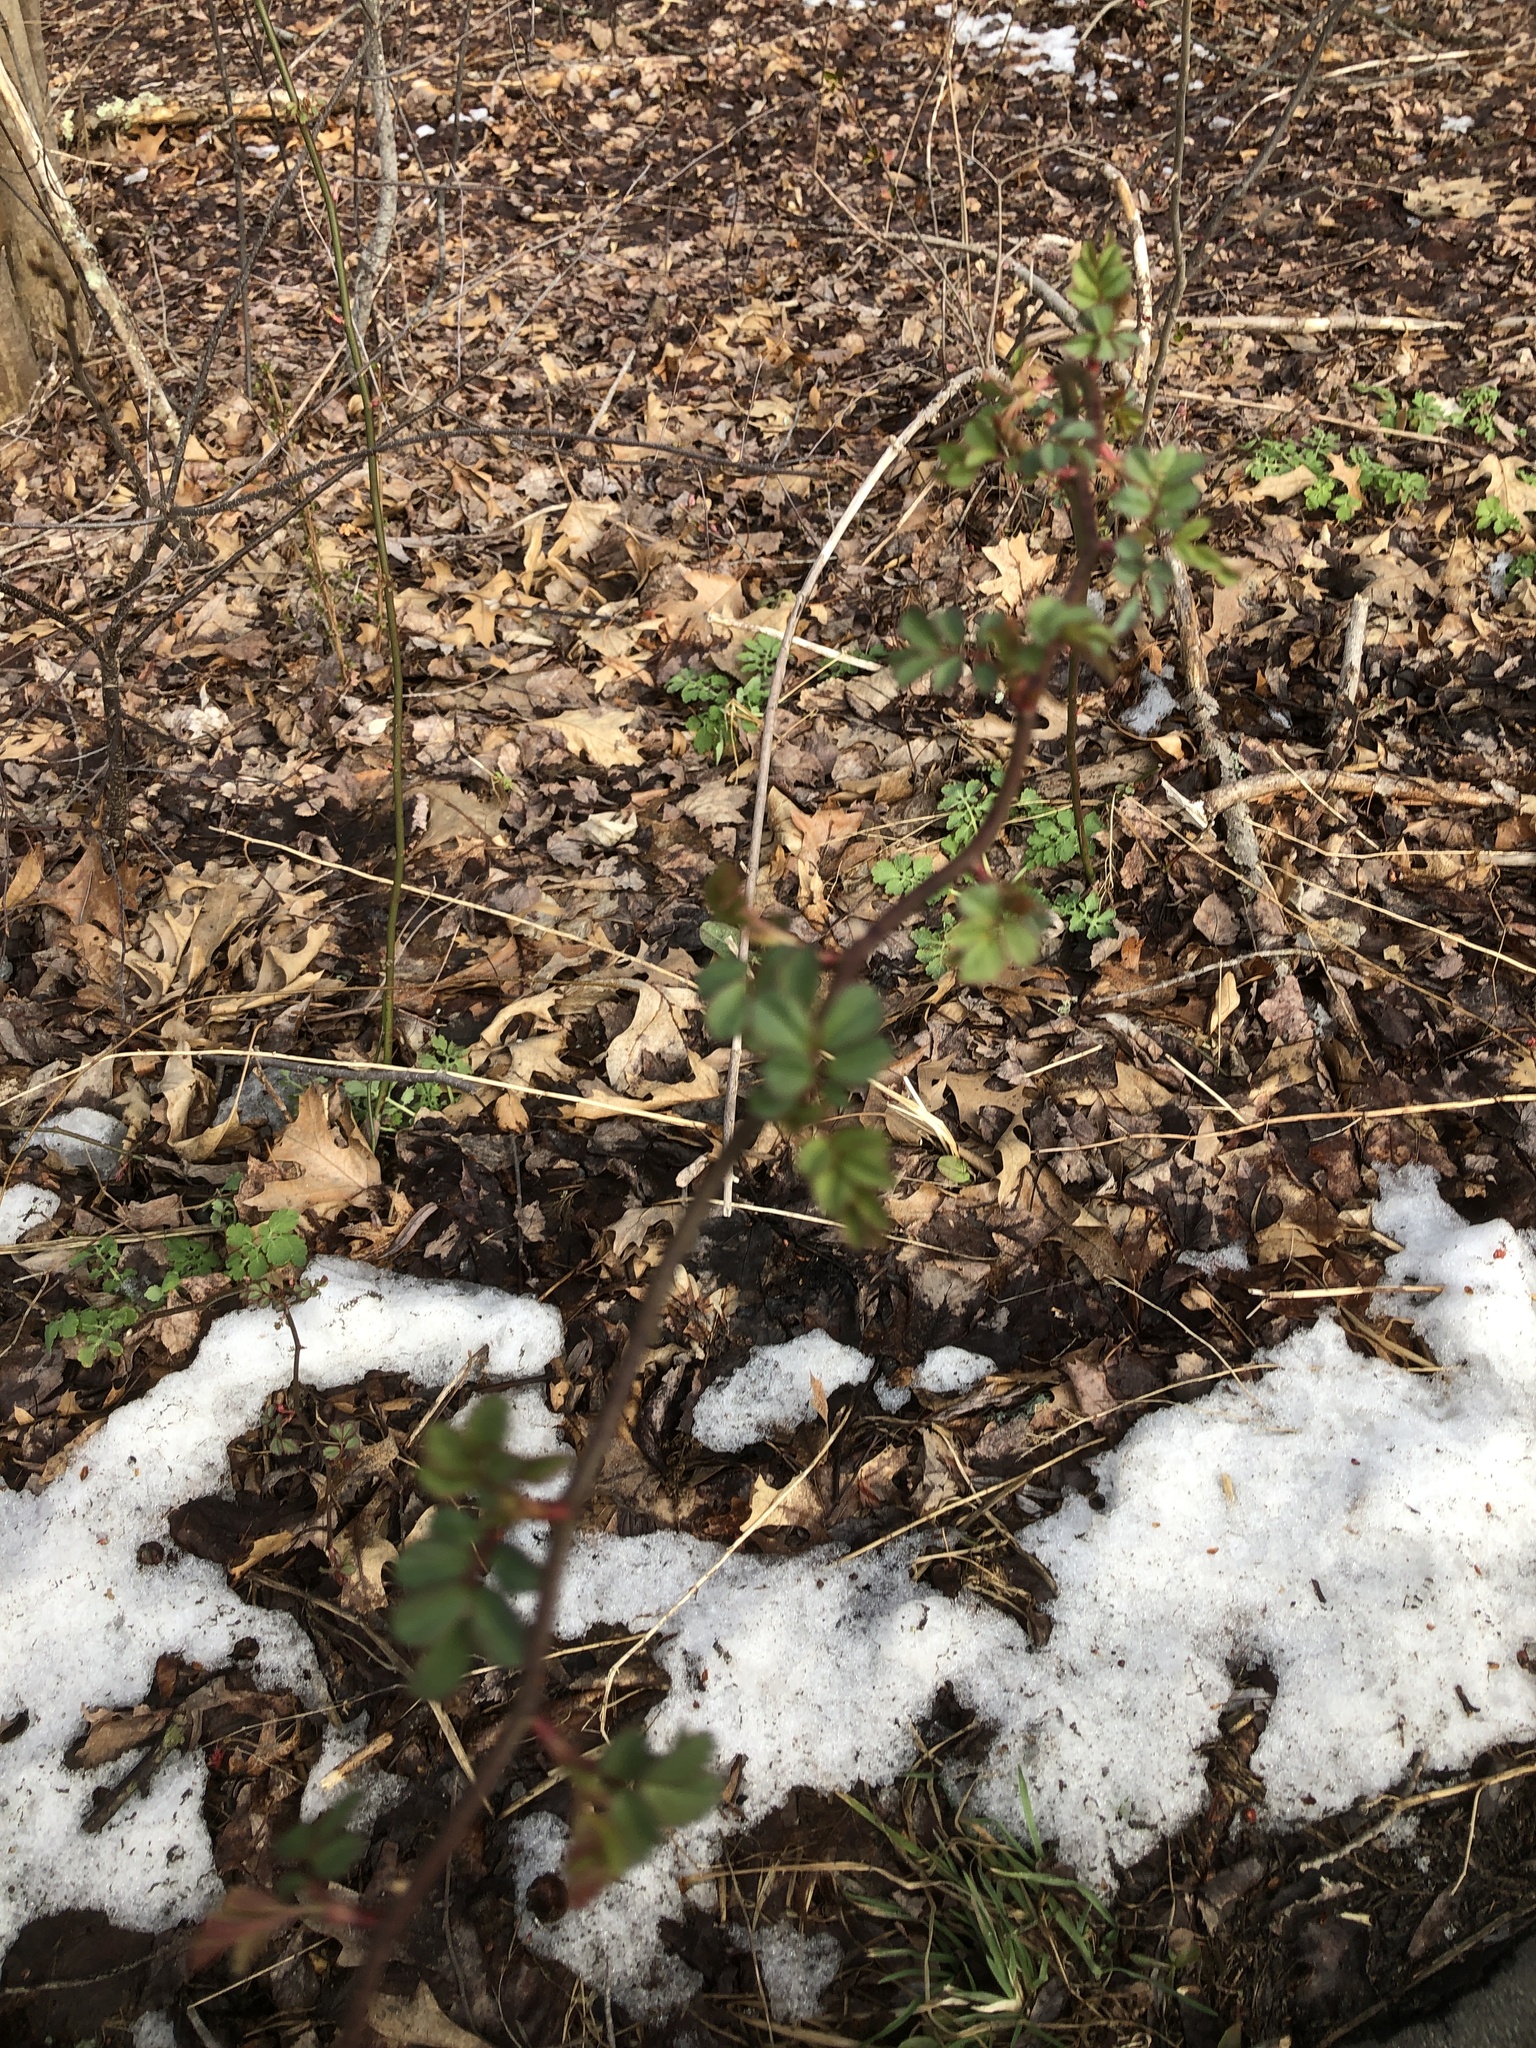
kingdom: Plantae
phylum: Tracheophyta
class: Magnoliopsida
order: Rosales
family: Rosaceae
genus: Rosa
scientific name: Rosa multiflora
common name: Multiflora rose
